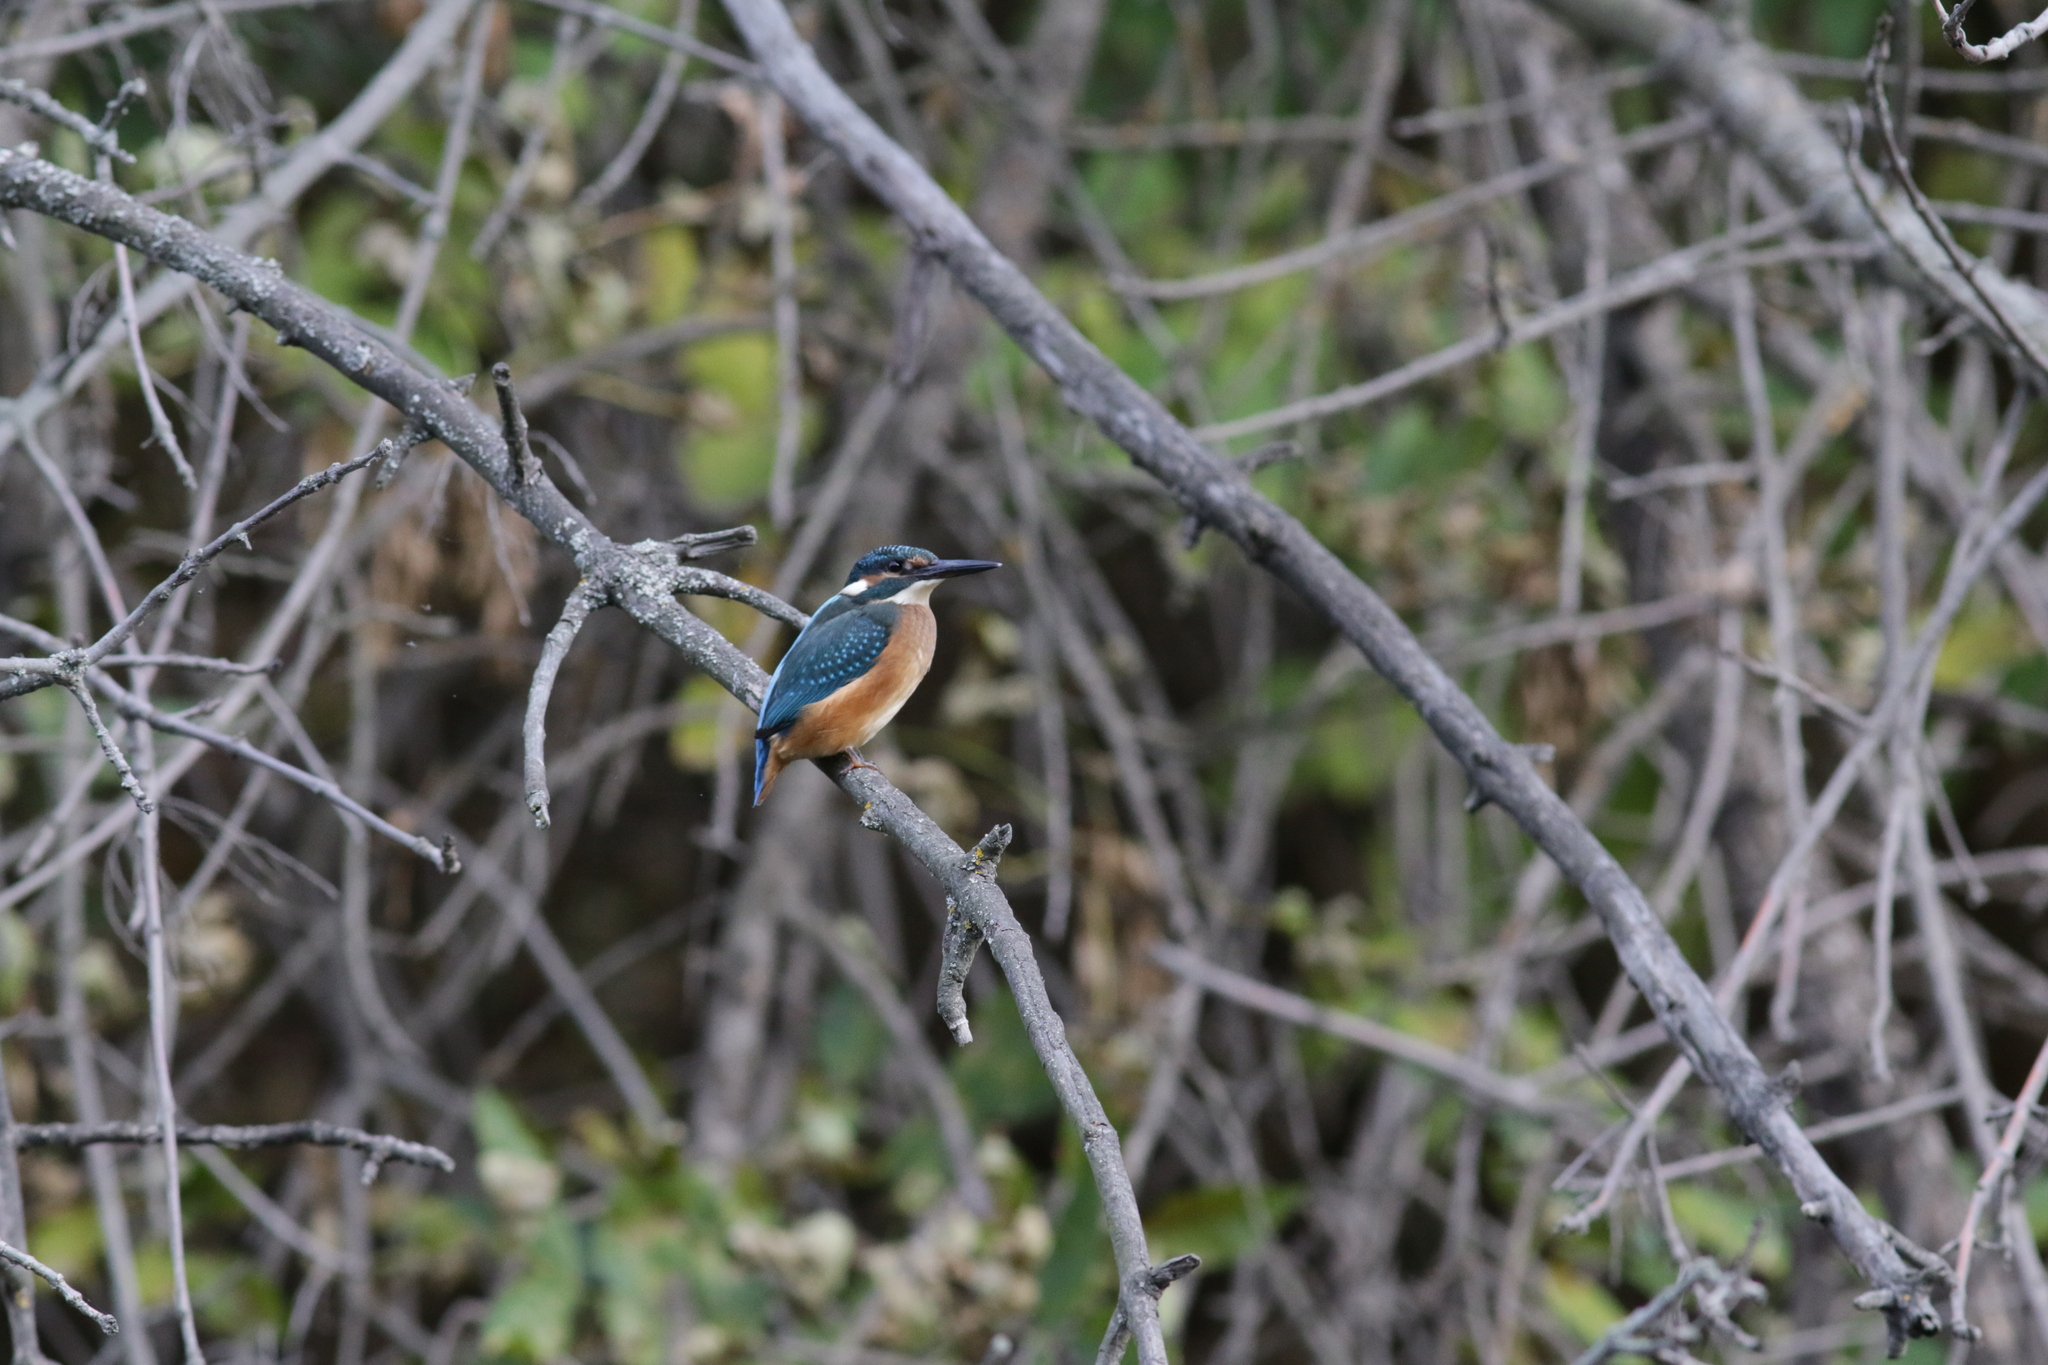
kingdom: Animalia
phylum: Chordata
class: Aves
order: Coraciiformes
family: Alcedinidae
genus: Alcedo
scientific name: Alcedo atthis
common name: Common kingfisher
